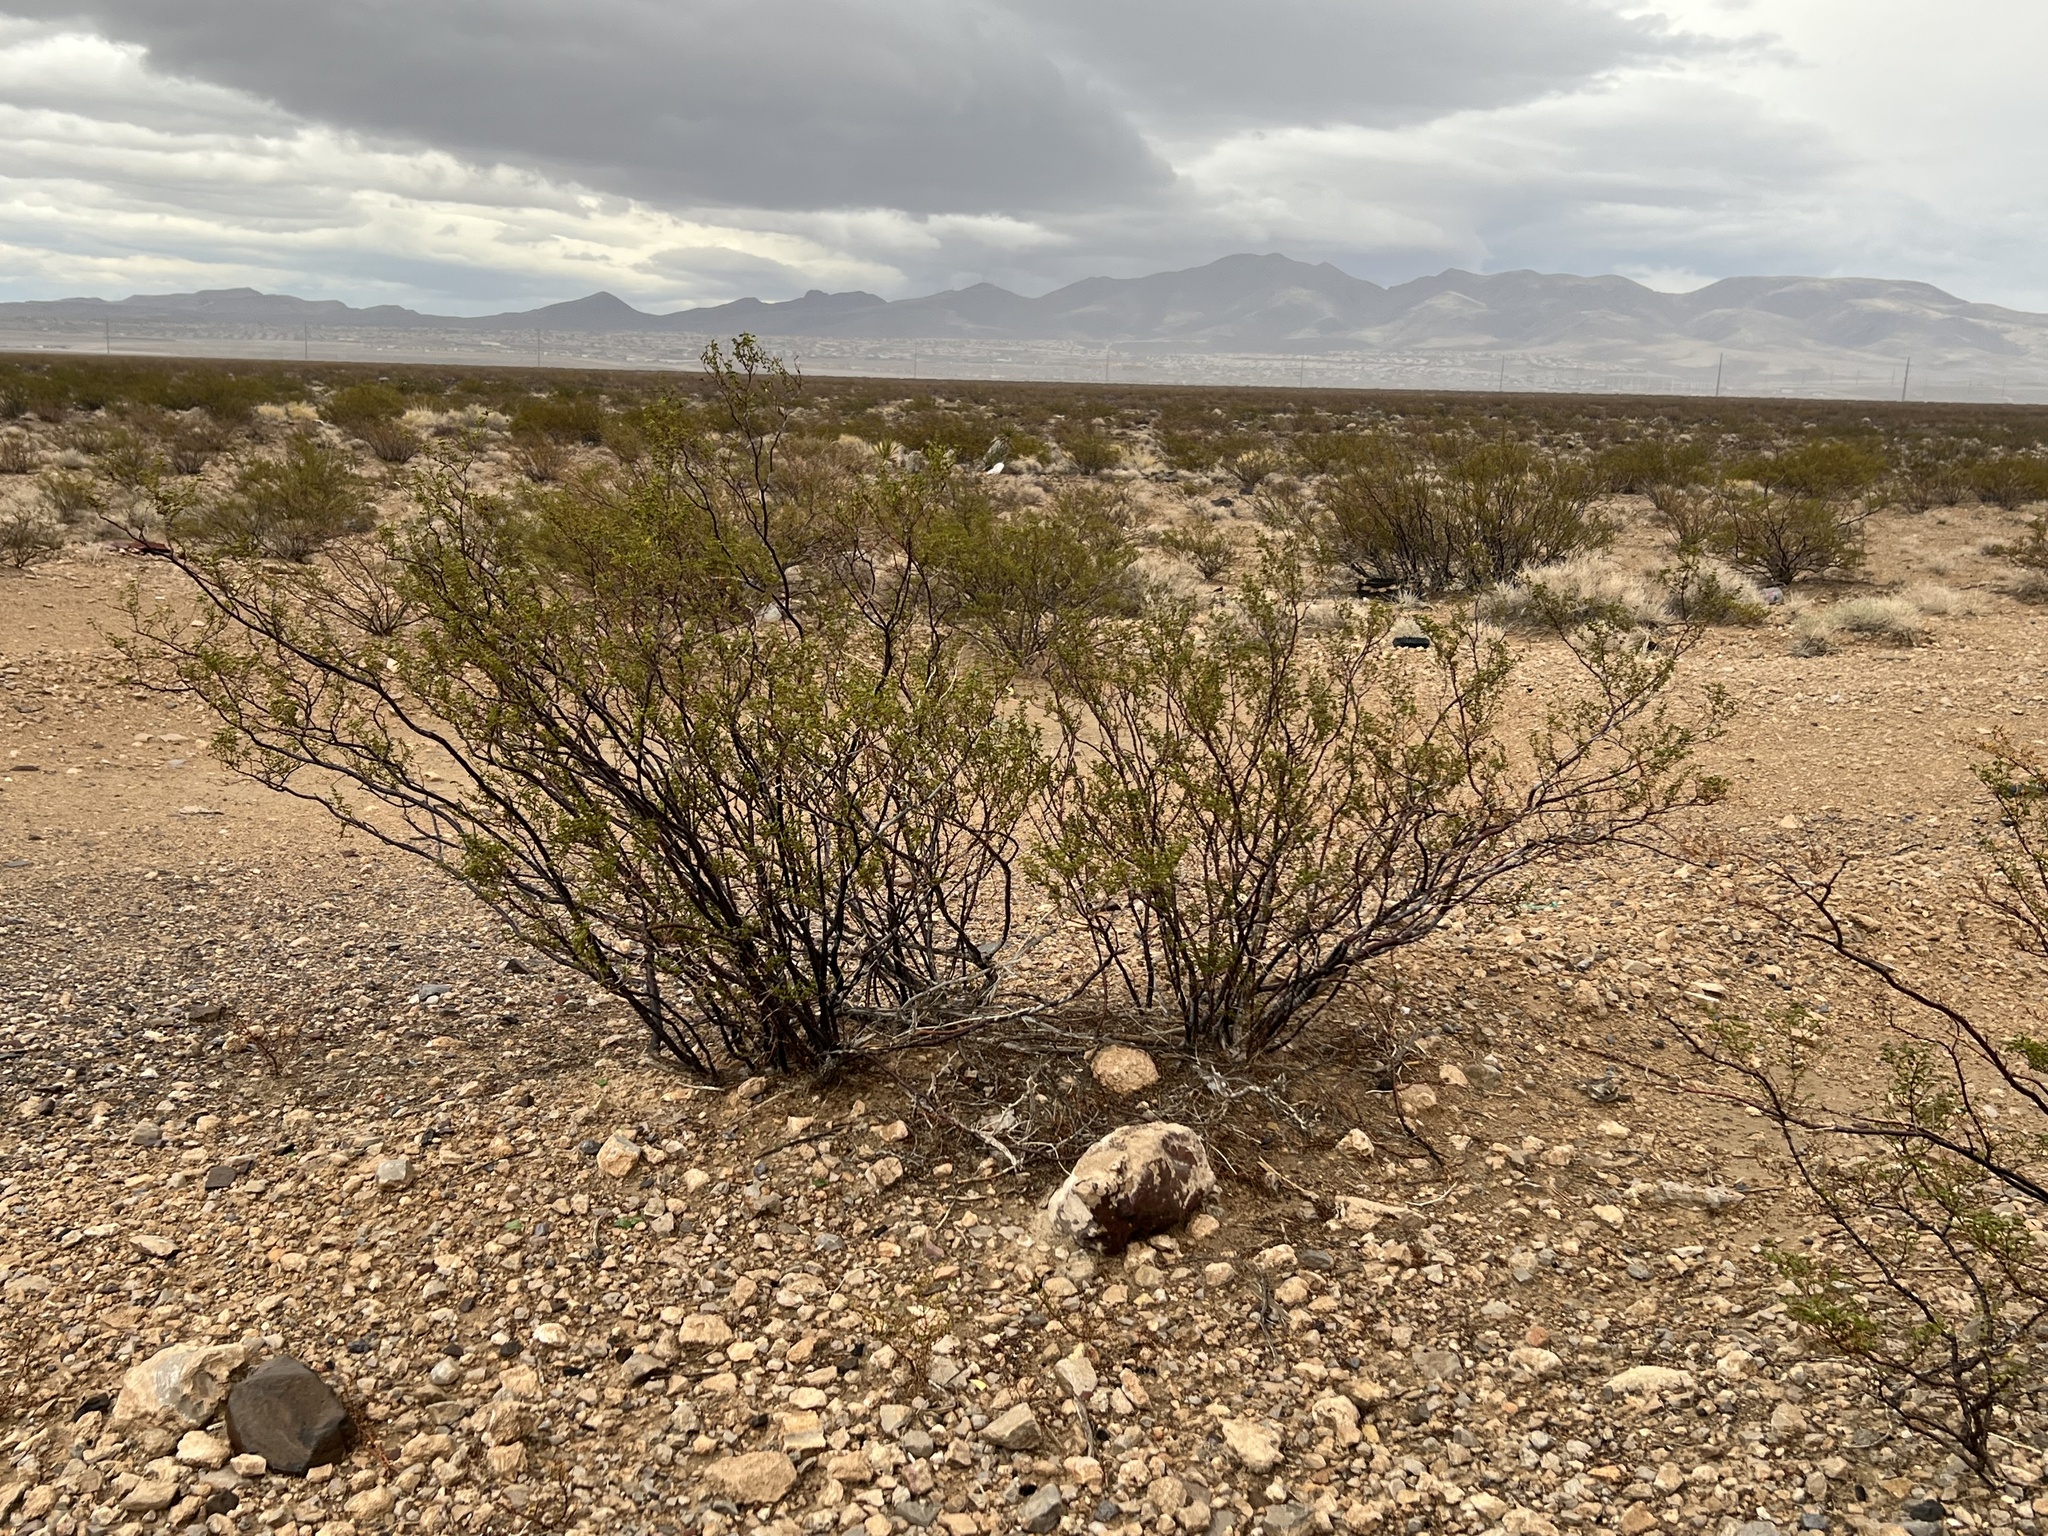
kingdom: Plantae
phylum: Tracheophyta
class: Magnoliopsida
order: Zygophyllales
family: Zygophyllaceae
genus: Larrea
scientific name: Larrea tridentata
